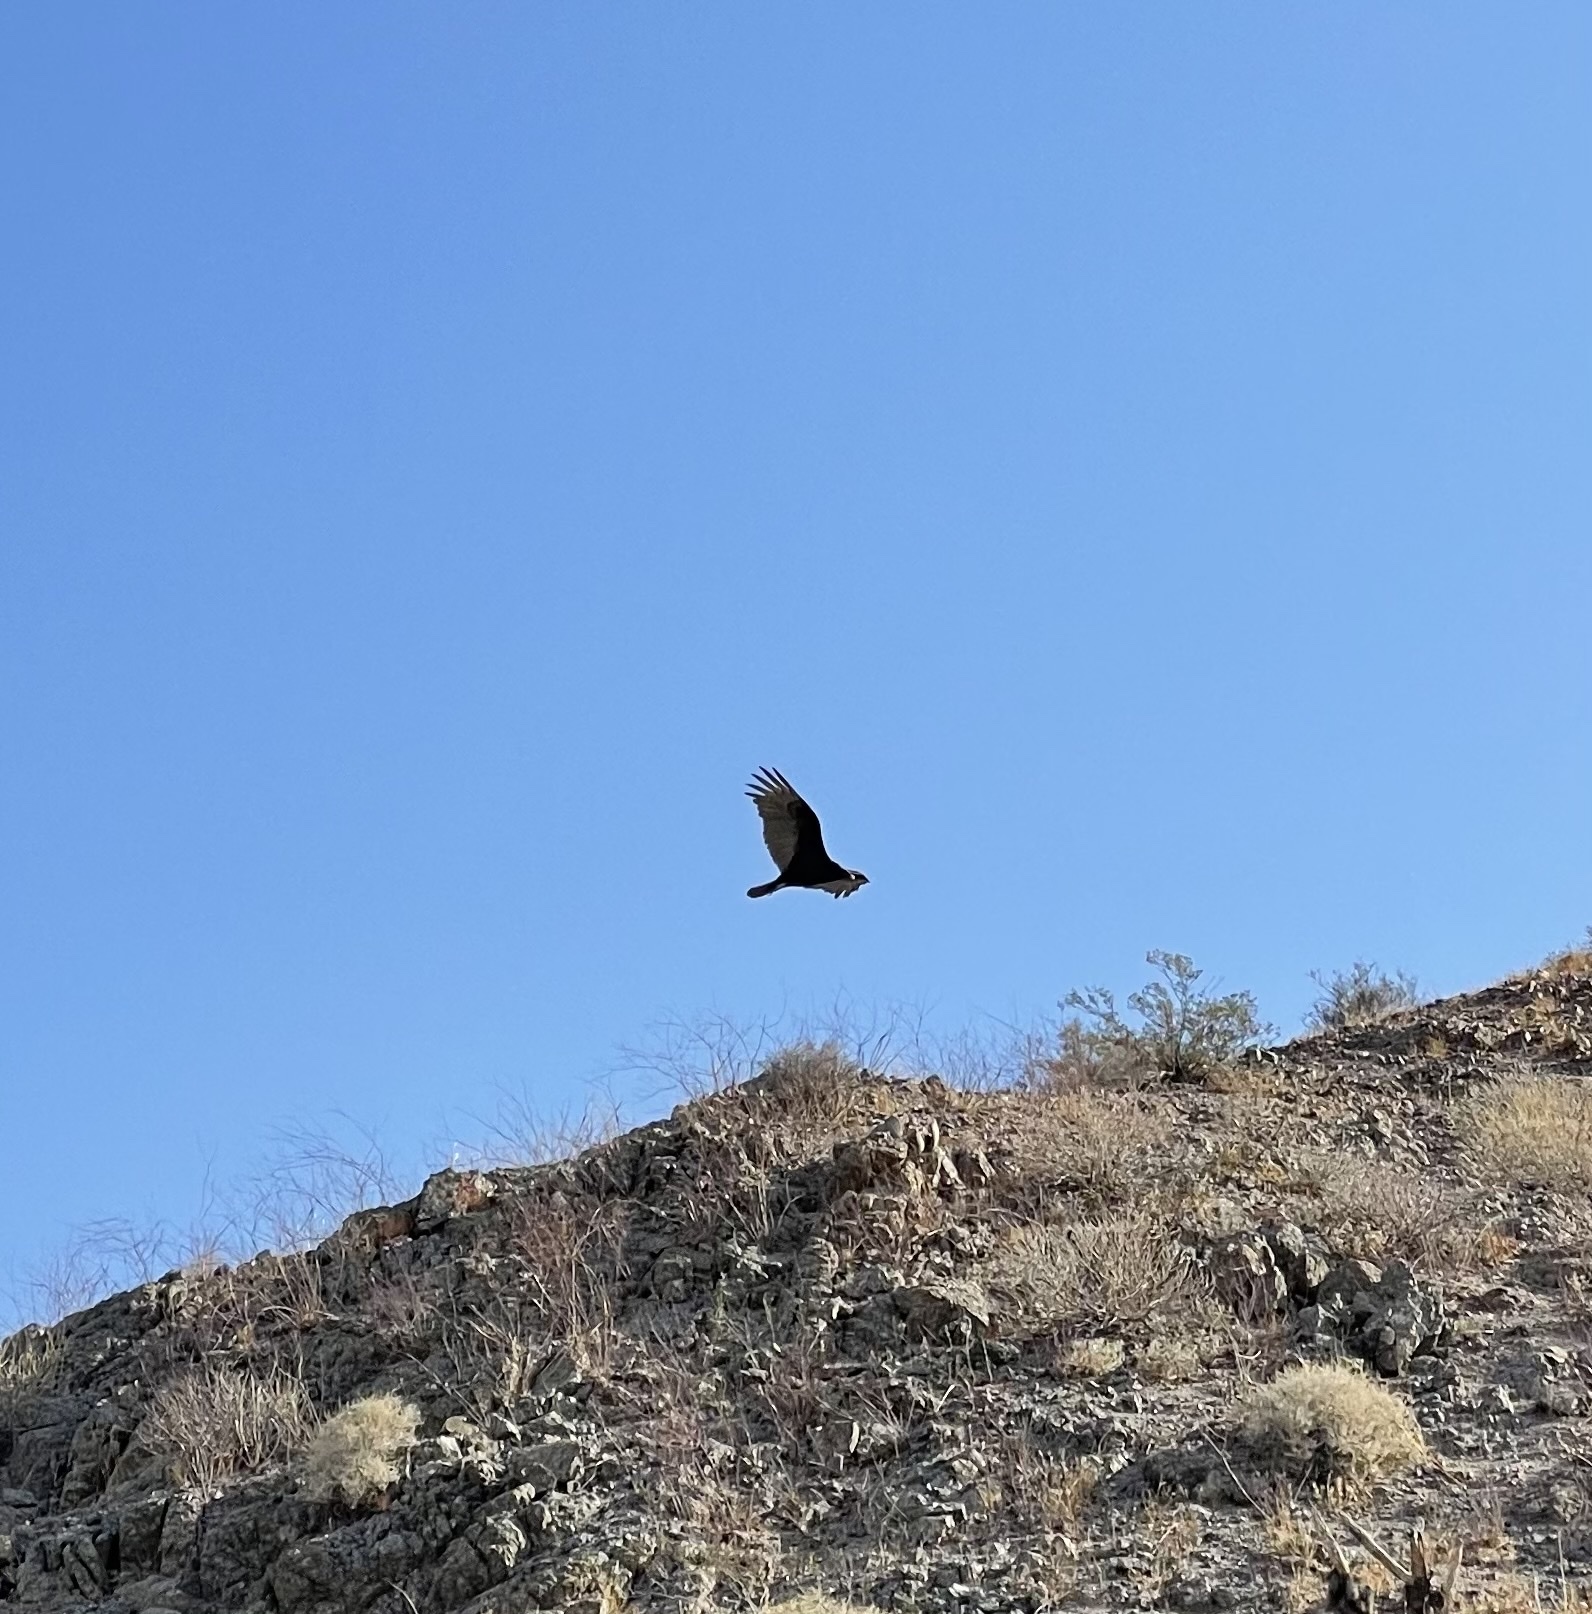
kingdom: Animalia
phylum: Chordata
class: Aves
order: Accipitriformes
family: Cathartidae
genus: Cathartes
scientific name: Cathartes aura
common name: Turkey vulture
